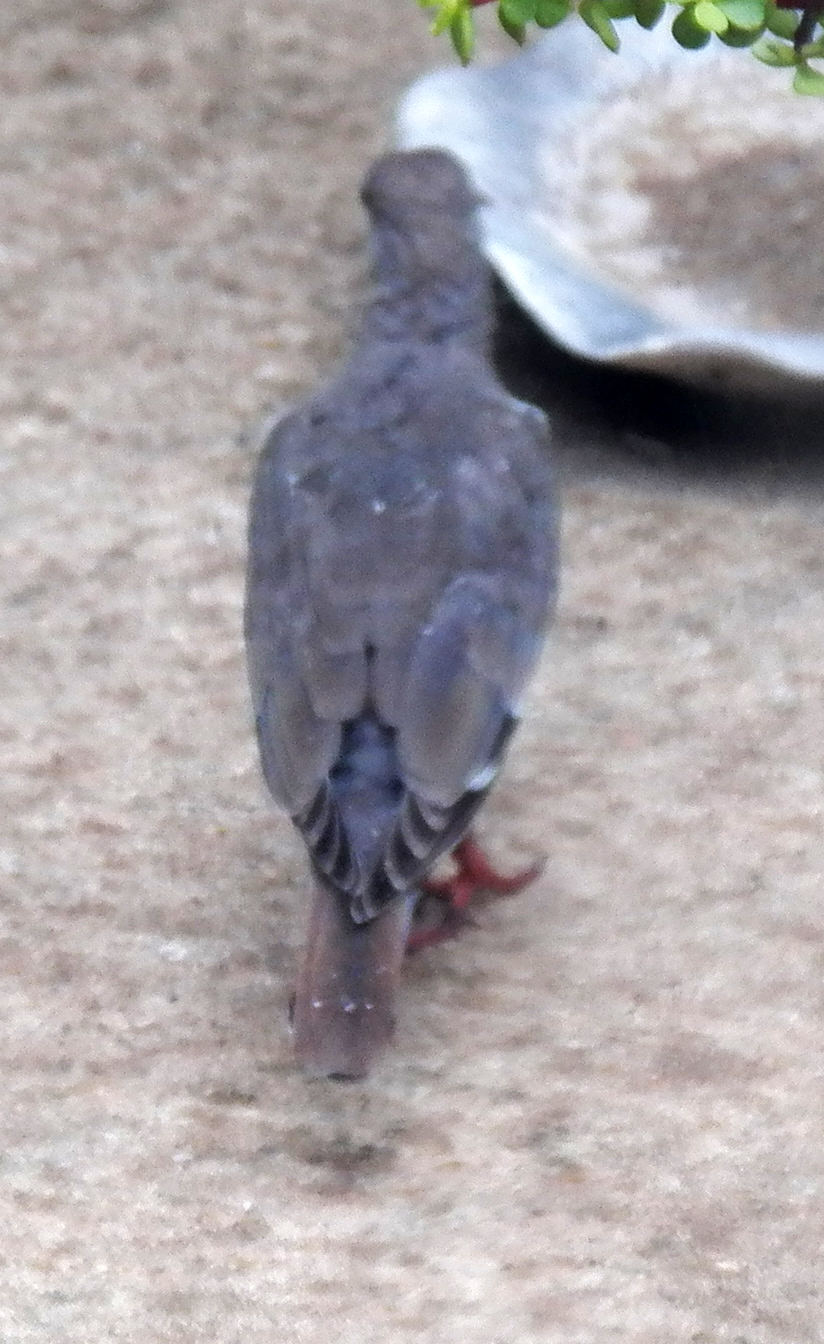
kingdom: Animalia
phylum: Chordata
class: Aves
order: Columbiformes
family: Columbidae
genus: Zenaida
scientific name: Zenaida asiatica
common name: White-winged dove
